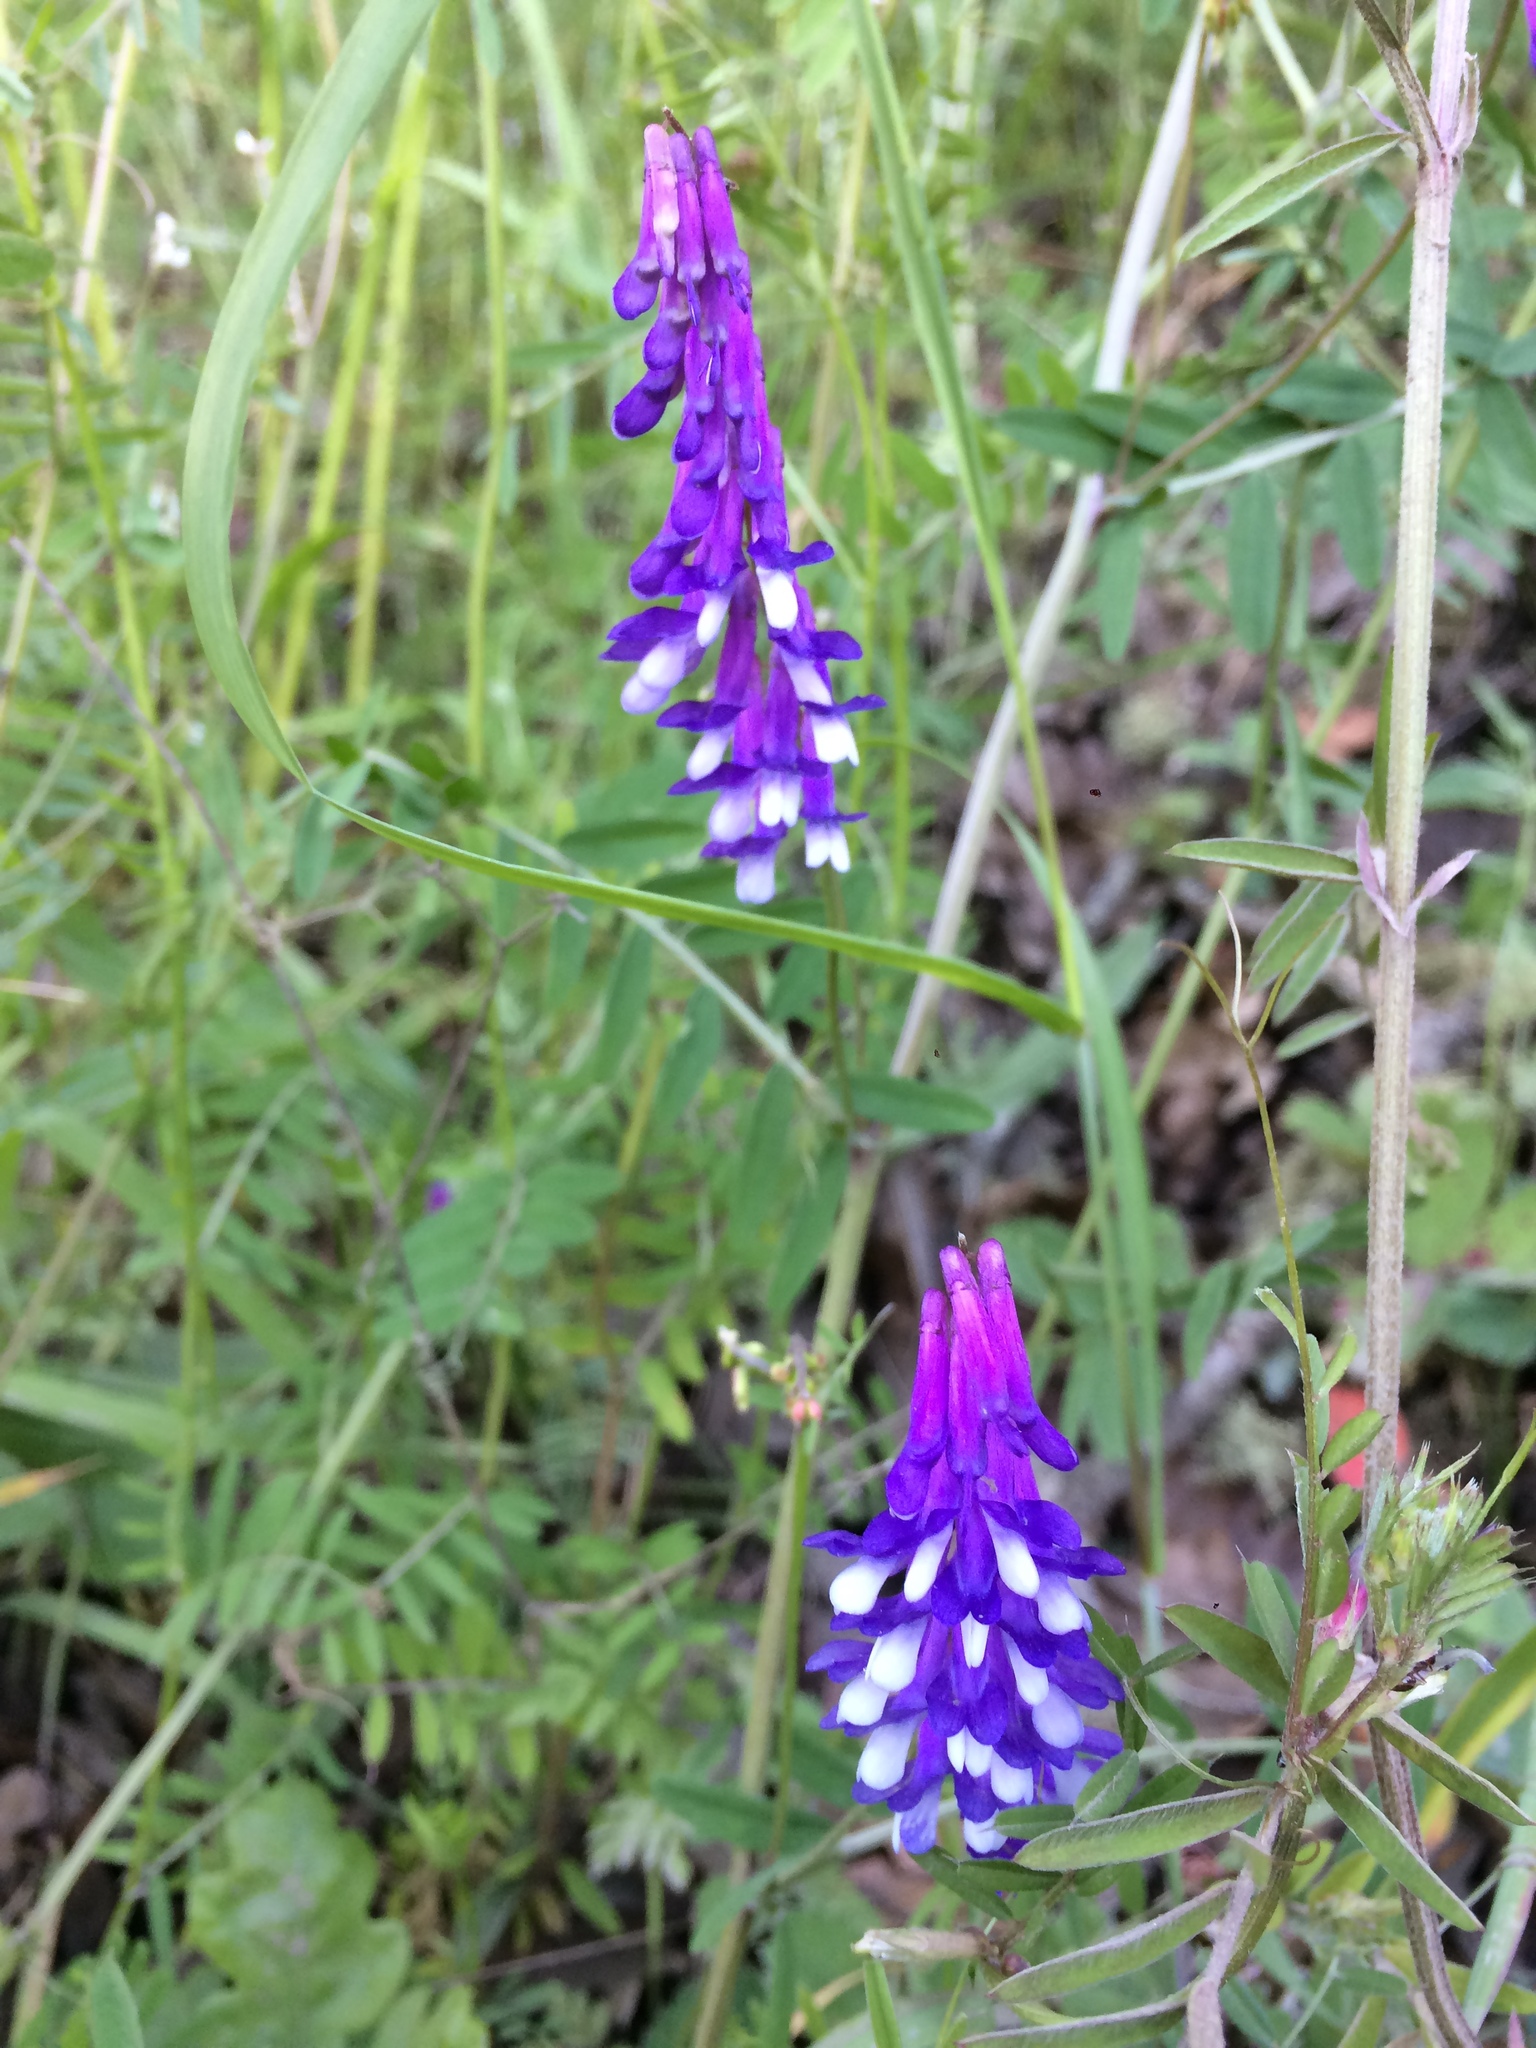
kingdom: Plantae
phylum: Tracheophyta
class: Magnoliopsida
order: Fabales
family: Fabaceae
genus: Vicia
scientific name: Vicia villosa
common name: Fodder vetch
